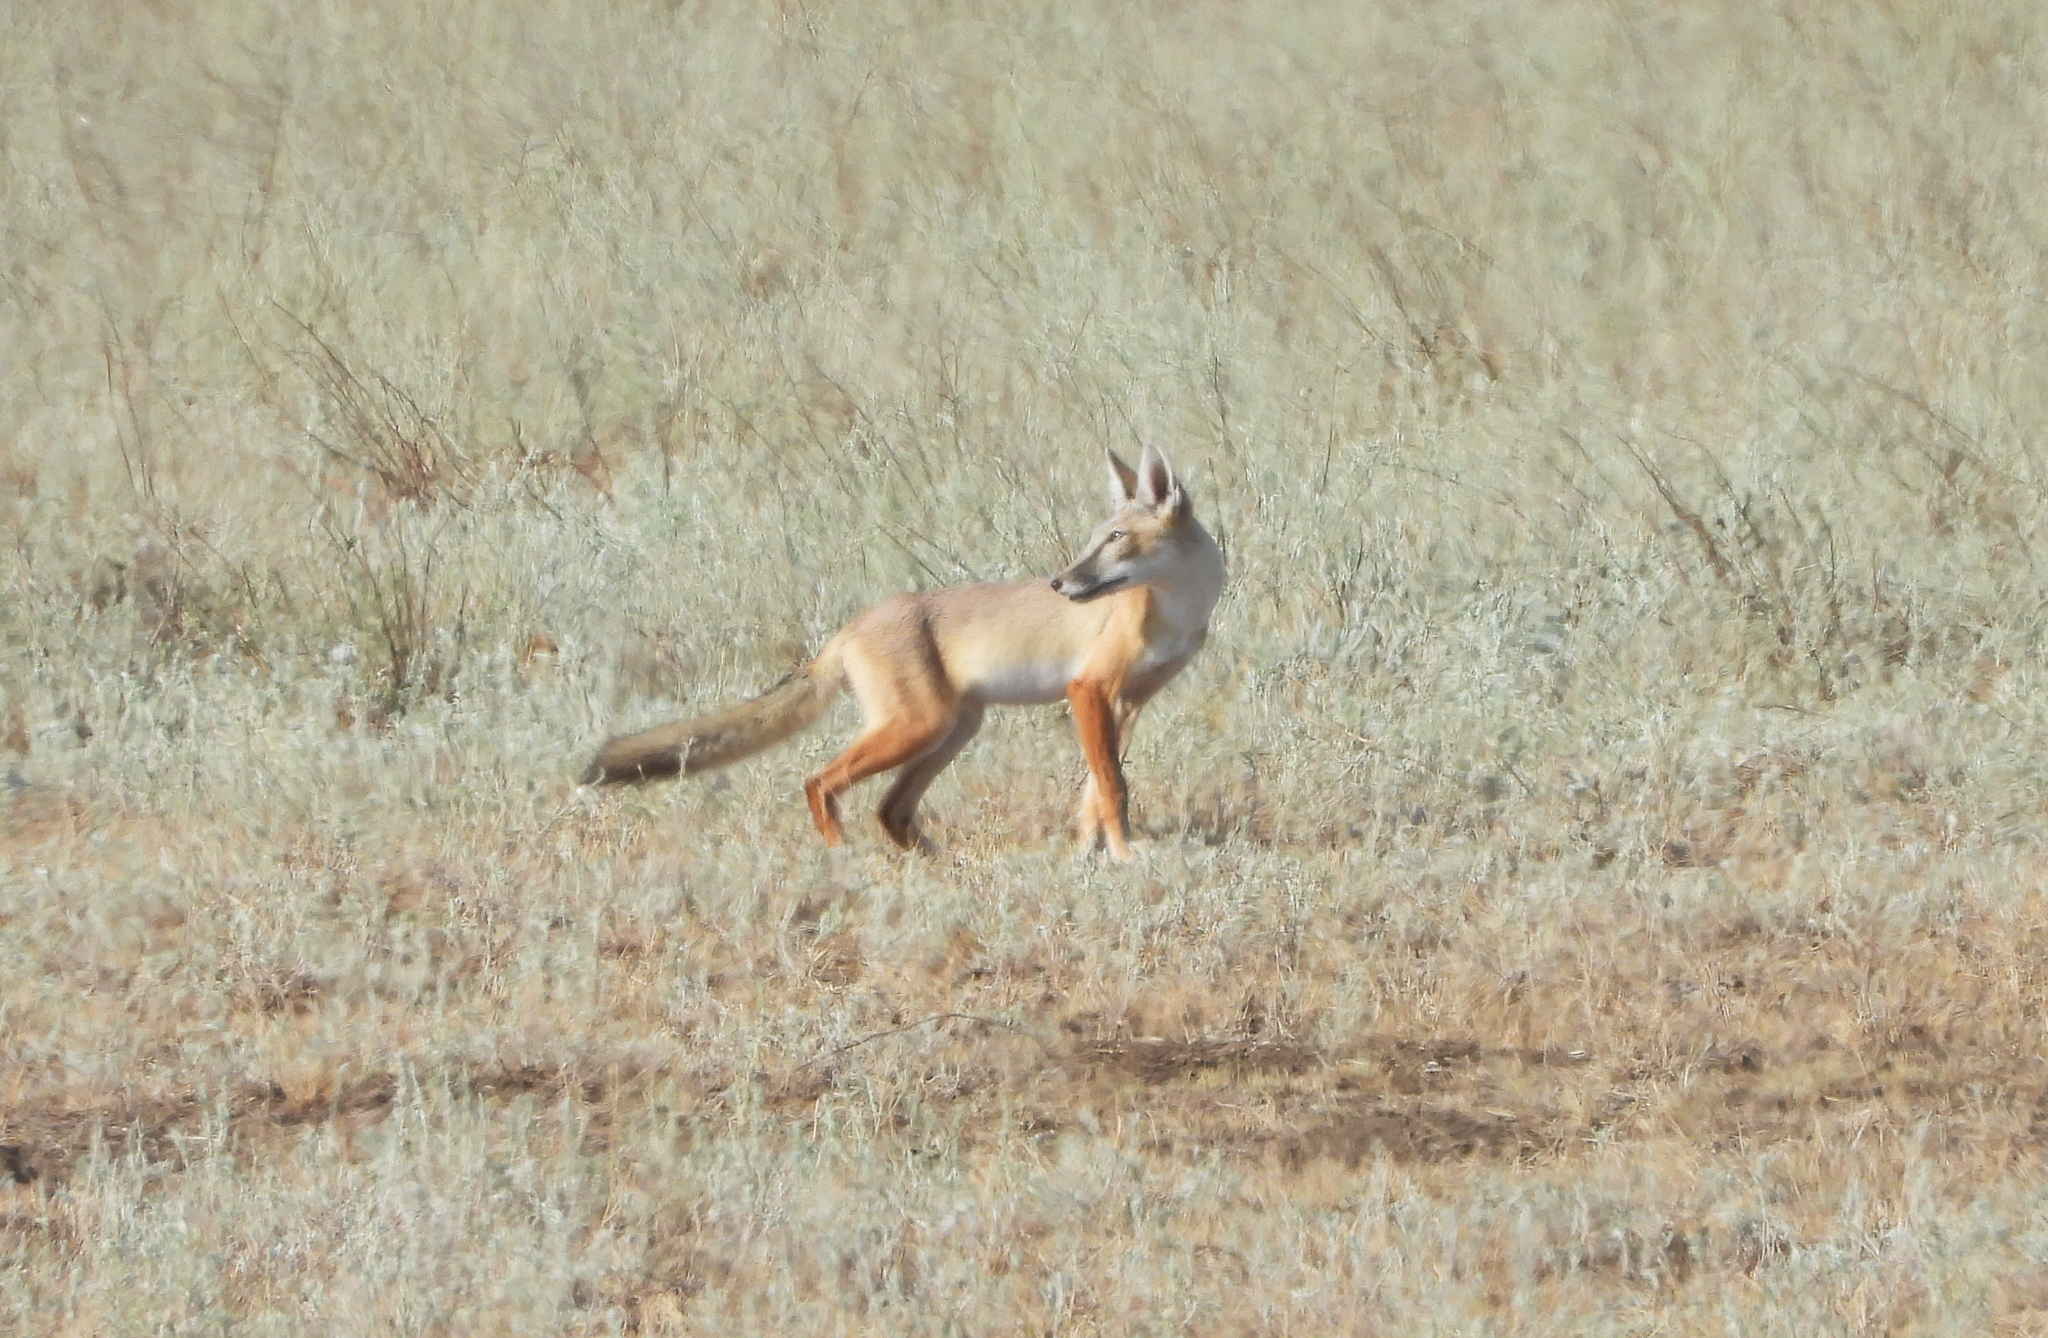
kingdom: Animalia
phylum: Chordata
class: Mammalia
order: Carnivora
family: Canidae
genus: Vulpes
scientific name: Vulpes corsac
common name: Corsac fox
